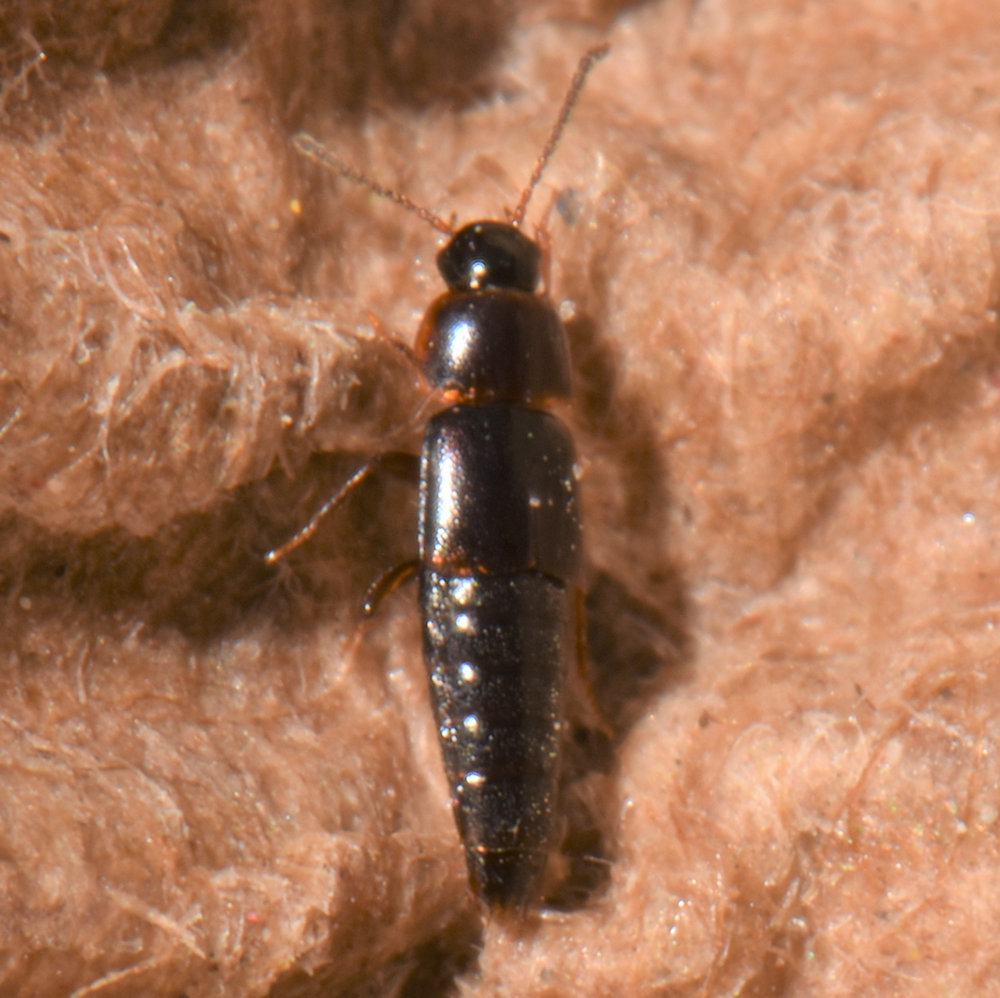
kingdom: Animalia
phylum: Arthropoda
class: Insecta
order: Coleoptera
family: Staphylinidae
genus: Tachinus
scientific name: Tachinus corticinus
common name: Staph beetle
